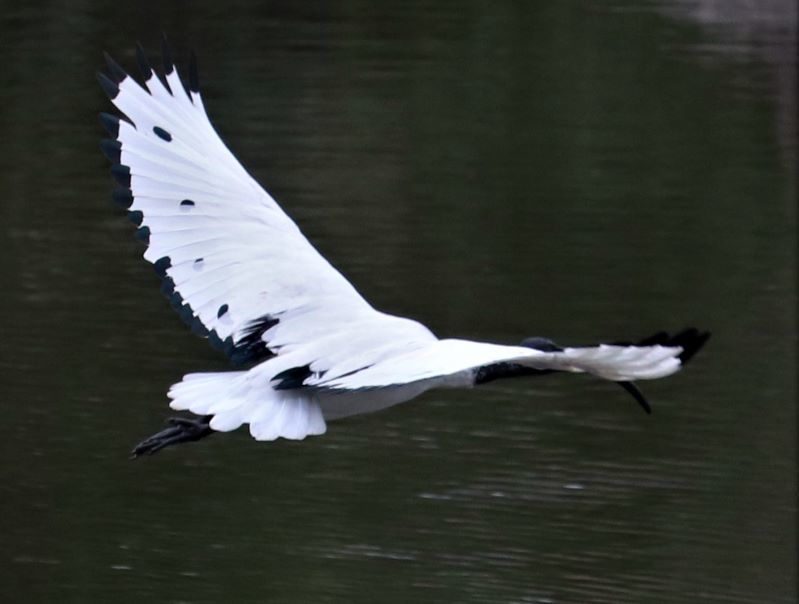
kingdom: Animalia
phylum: Chordata
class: Aves
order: Pelecaniformes
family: Threskiornithidae
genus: Threskiornis
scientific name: Threskiornis aethiopicus
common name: Sacred ibis
